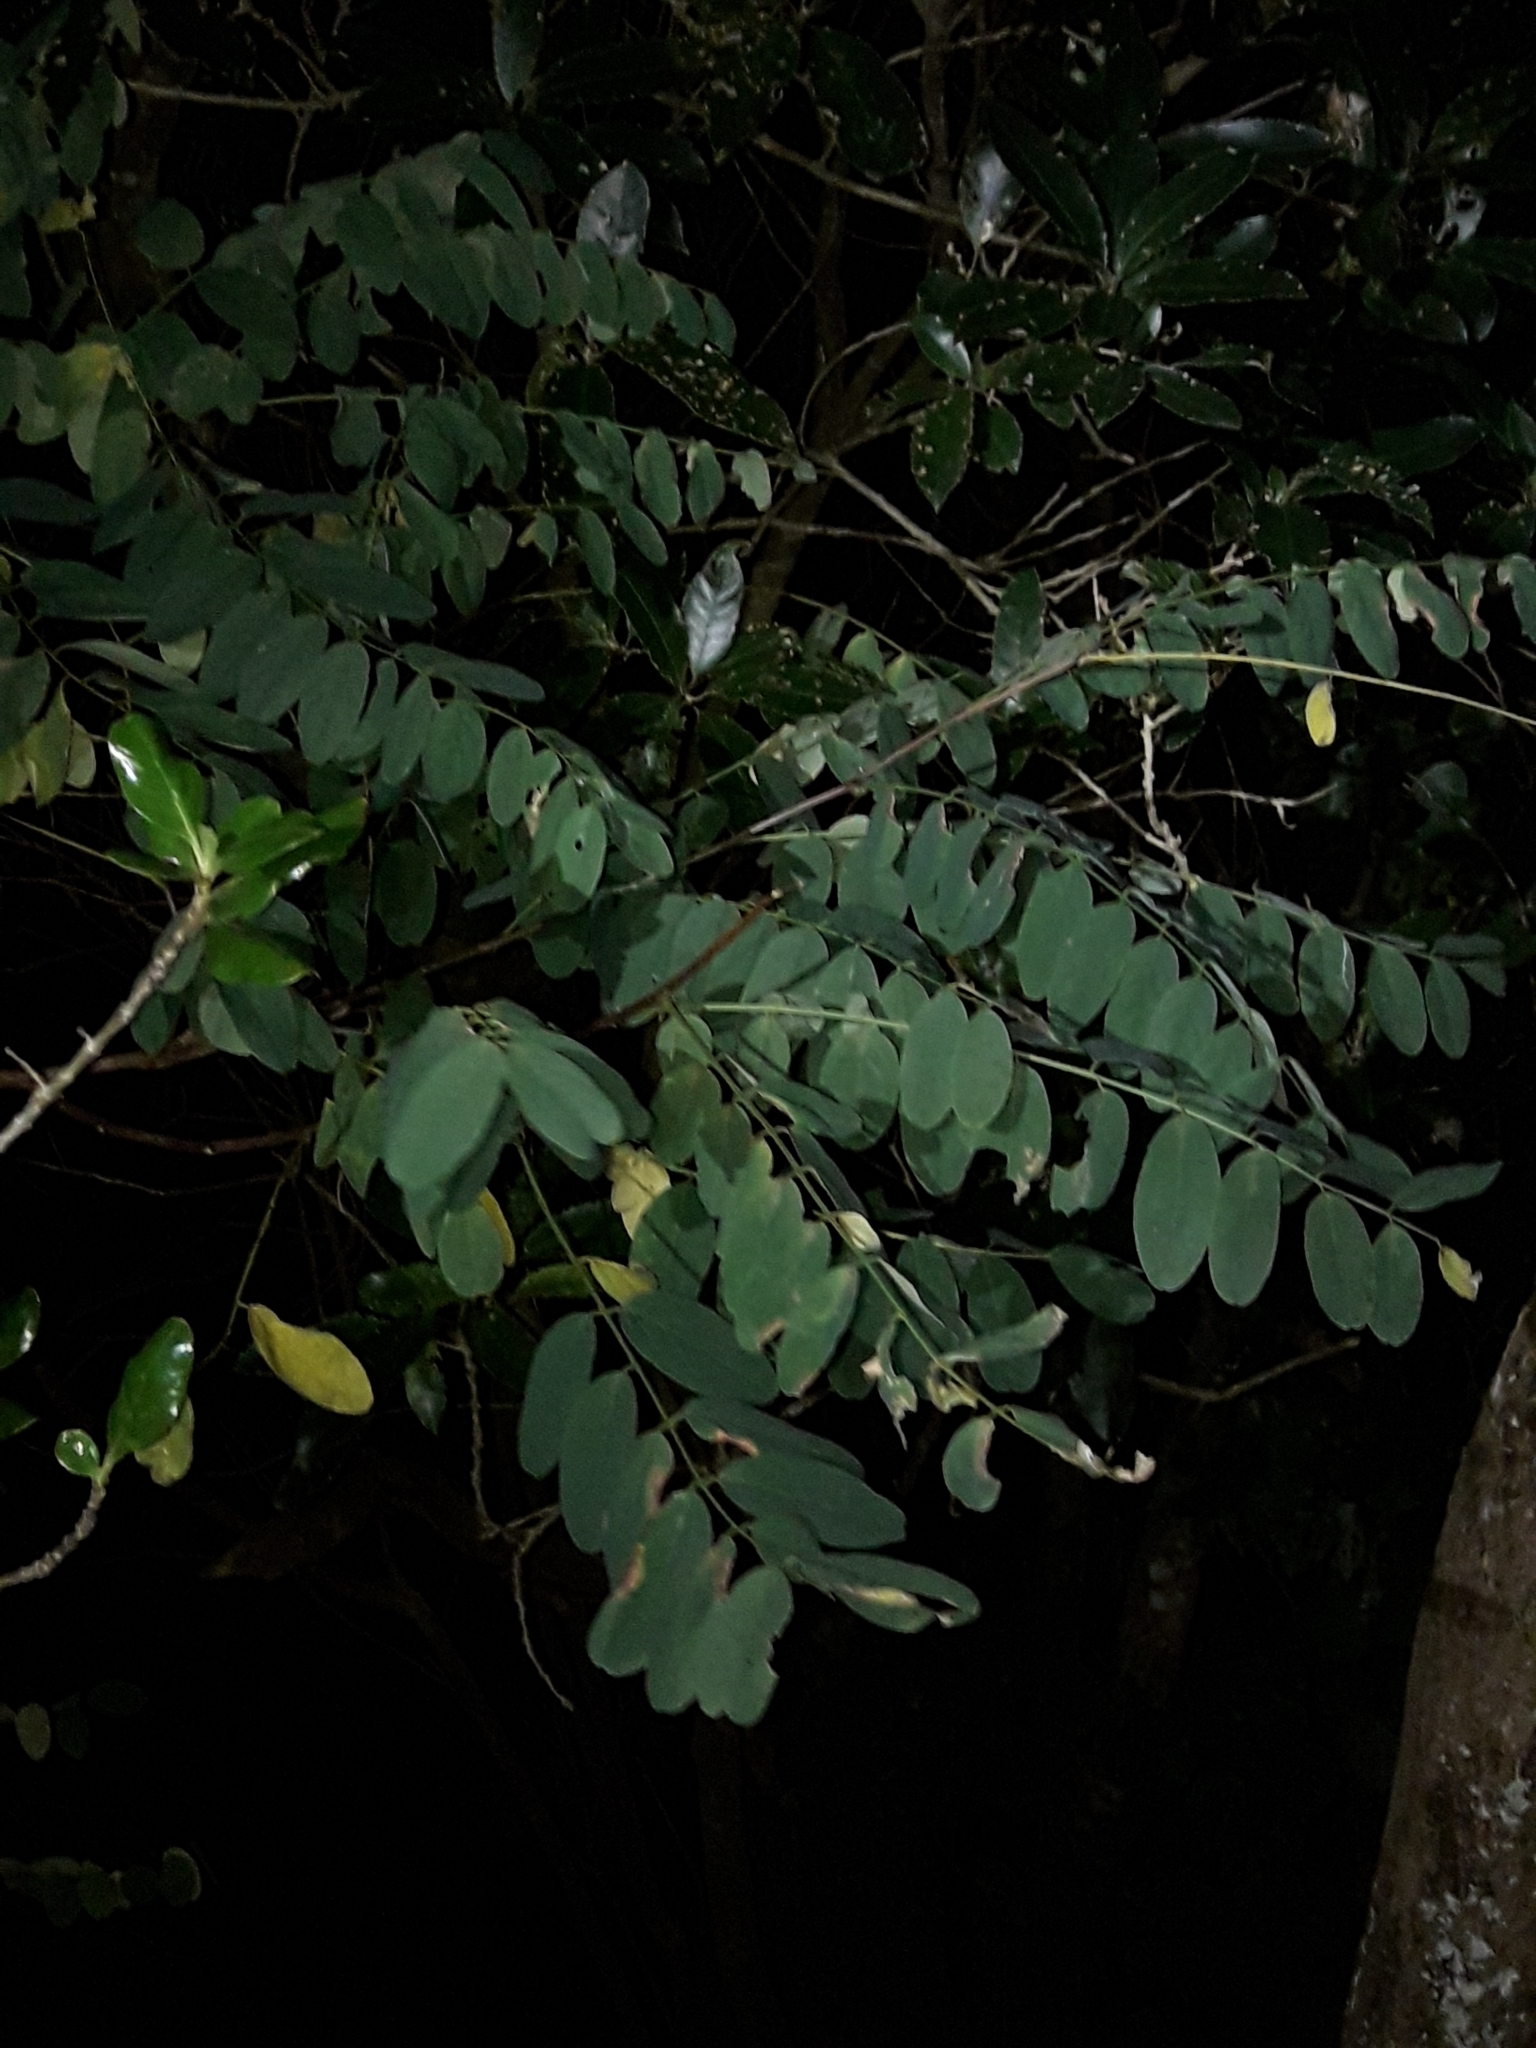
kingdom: Plantae
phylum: Tracheophyta
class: Magnoliopsida
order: Fabales
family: Fabaceae
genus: Robinia
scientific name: Robinia pseudoacacia
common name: Black locust
